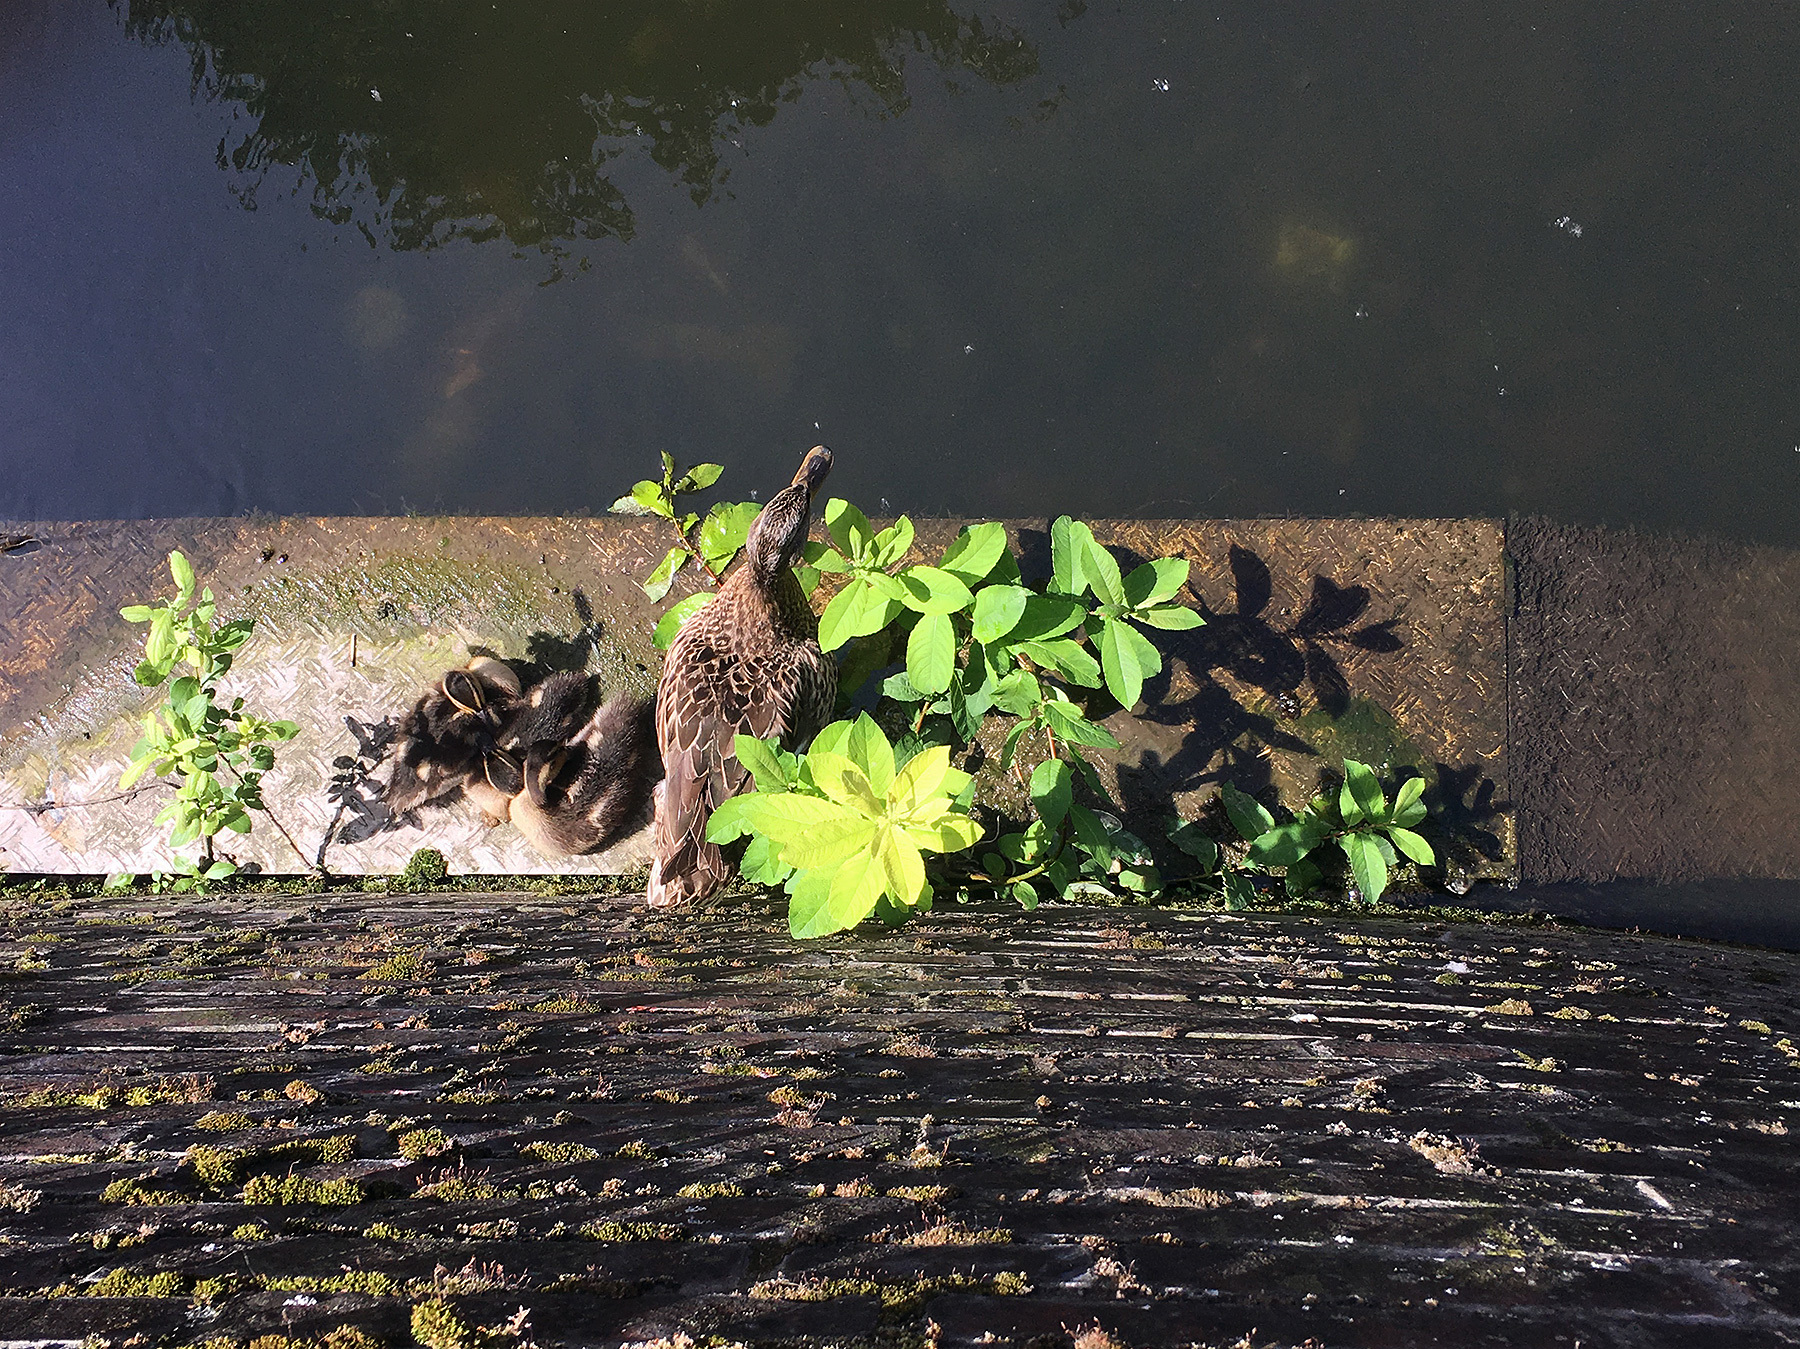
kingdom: Animalia
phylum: Chordata
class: Aves
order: Anseriformes
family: Anatidae
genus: Anas
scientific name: Anas platyrhynchos
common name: Mallard
